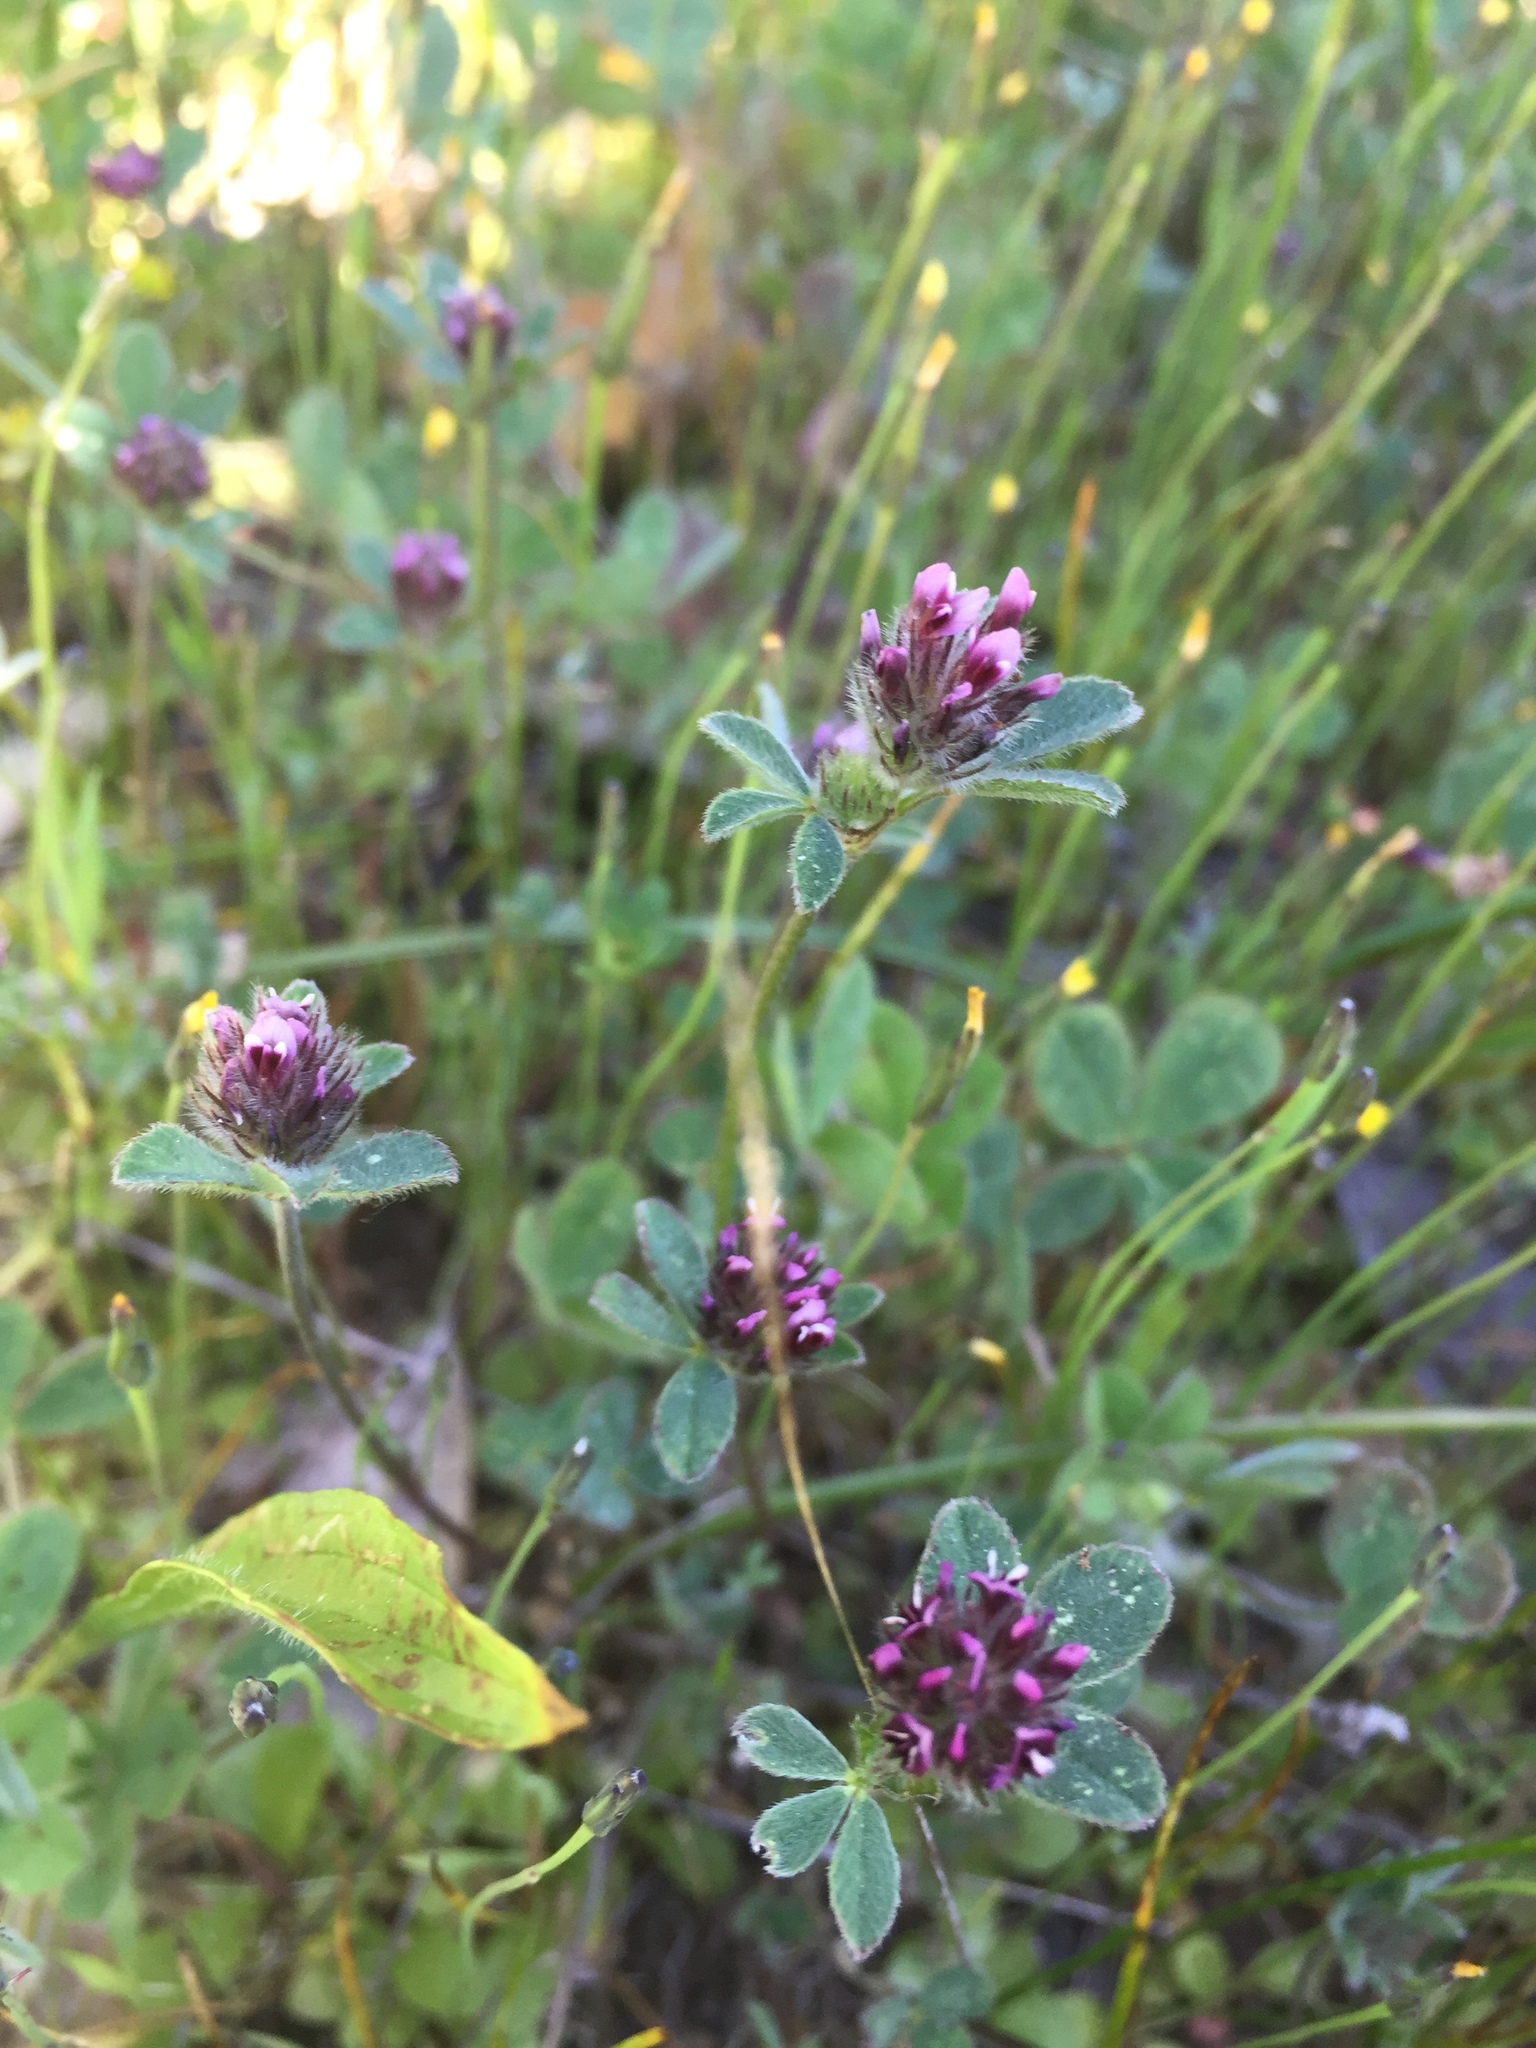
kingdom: Plantae
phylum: Tracheophyta
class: Magnoliopsida
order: Fabales
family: Fabaceae
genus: Trifolium
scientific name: Trifolium macraei
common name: Macrae's clover
